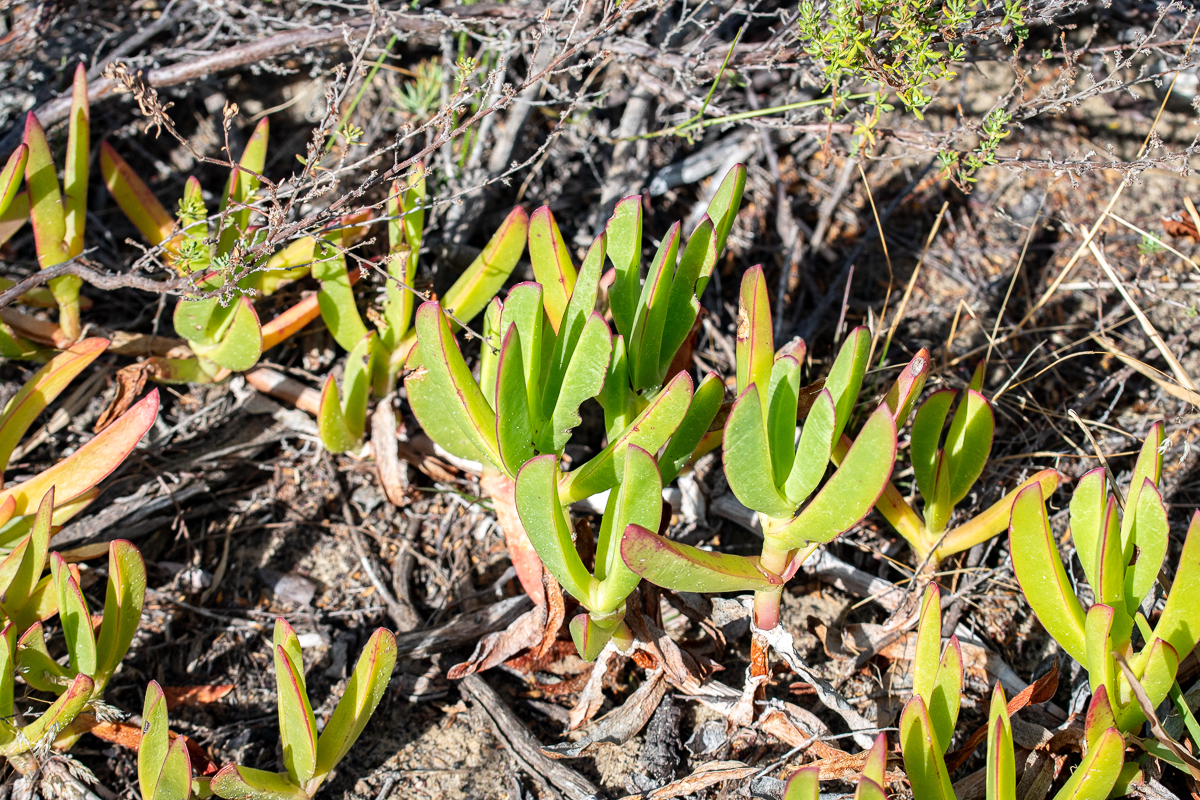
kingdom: Plantae
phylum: Tracheophyta
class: Magnoliopsida
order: Caryophyllales
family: Aizoaceae
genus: Carpobrotus
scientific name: Carpobrotus edulis
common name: Hottentot-fig
